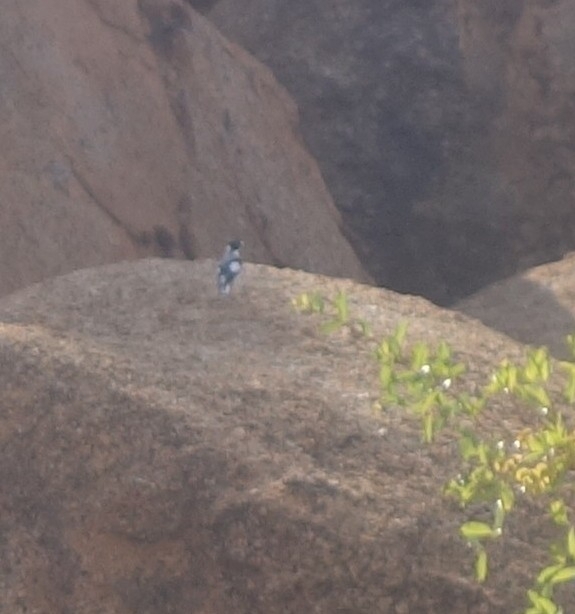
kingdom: Animalia
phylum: Chordata
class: Aves
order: Passeriformes
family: Platysteiridae
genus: Lanioturdus
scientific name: Lanioturdus torquatus
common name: White-tailed shrike
